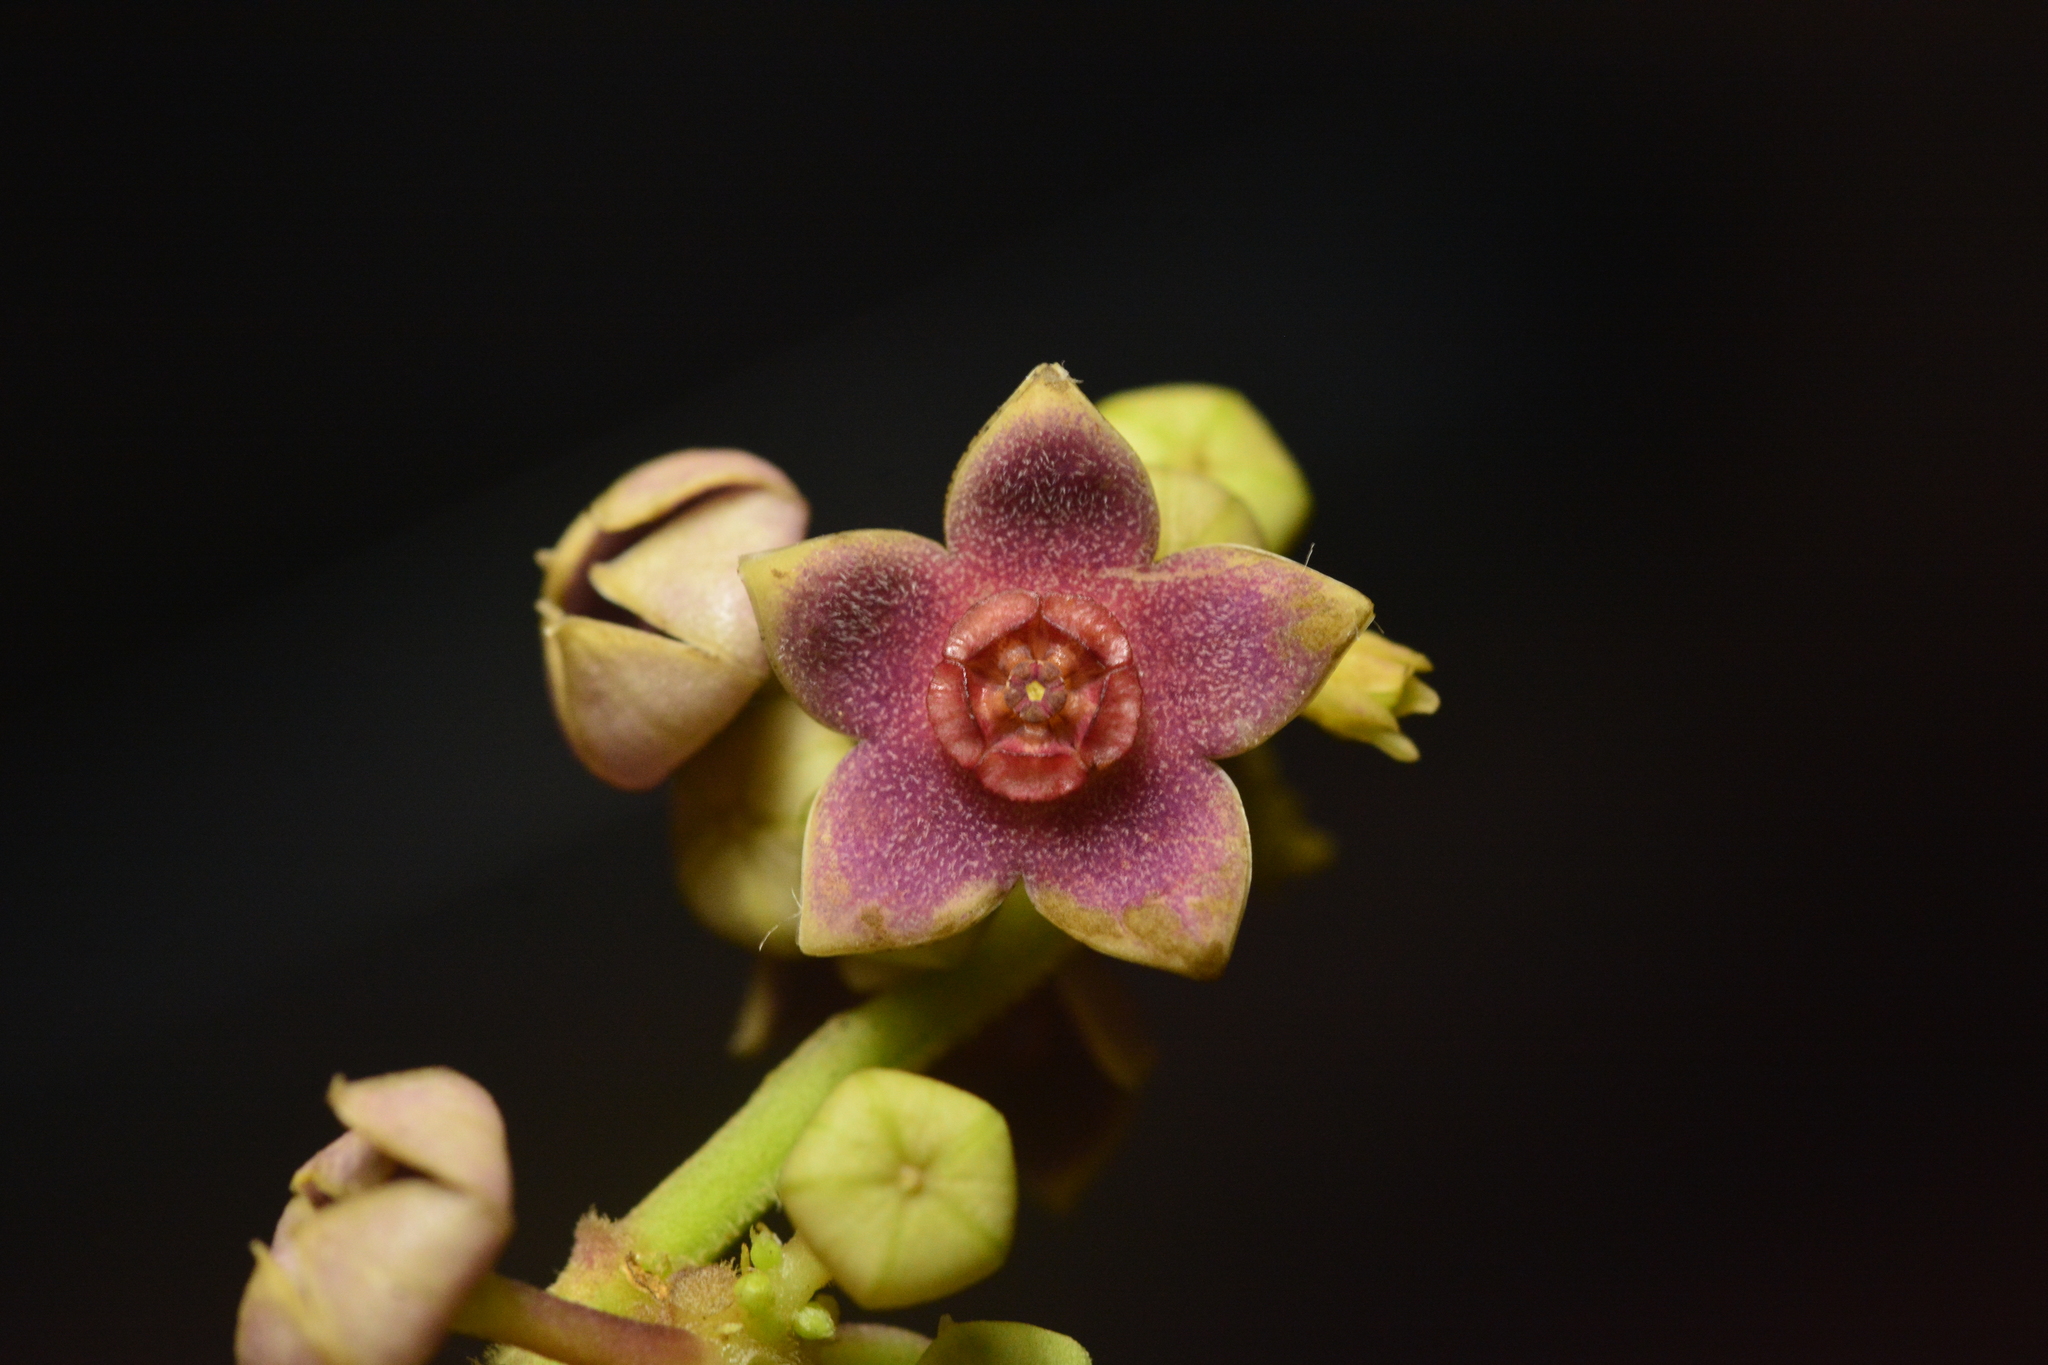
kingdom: Plantae
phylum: Tracheophyta
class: Magnoliopsida
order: Gentianales
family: Apocynaceae
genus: Heterostemma
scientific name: Heterostemma dalzellii
